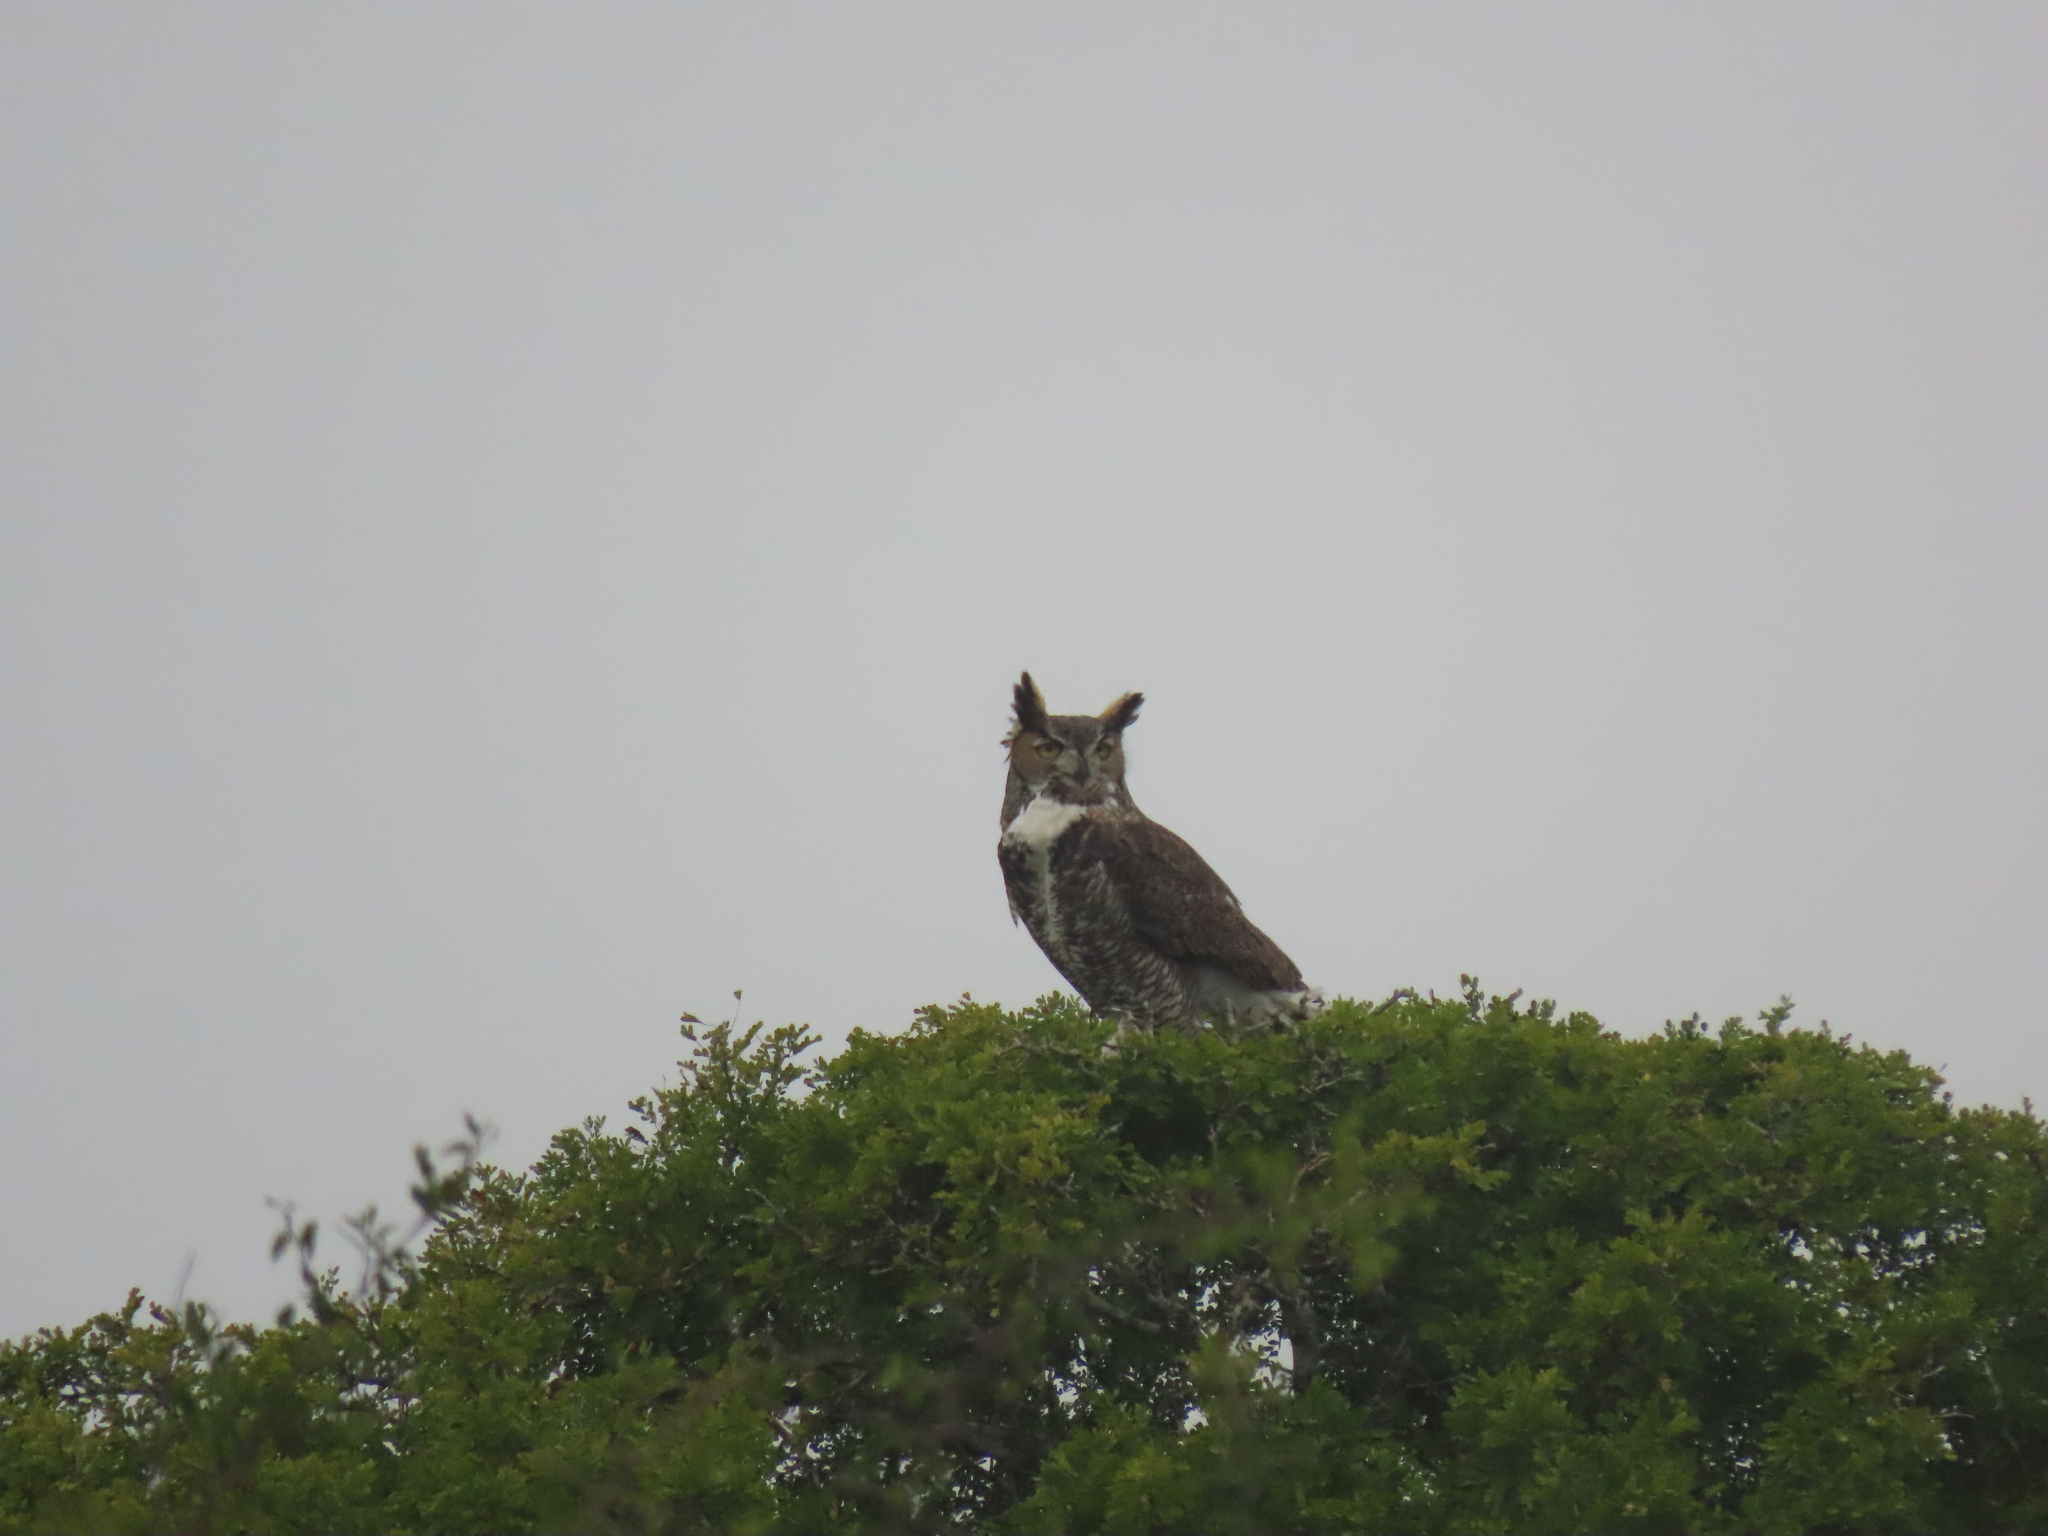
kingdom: Animalia
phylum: Chordata
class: Aves
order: Strigiformes
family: Strigidae
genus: Bubo
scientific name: Bubo virginianus
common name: Great horned owl
